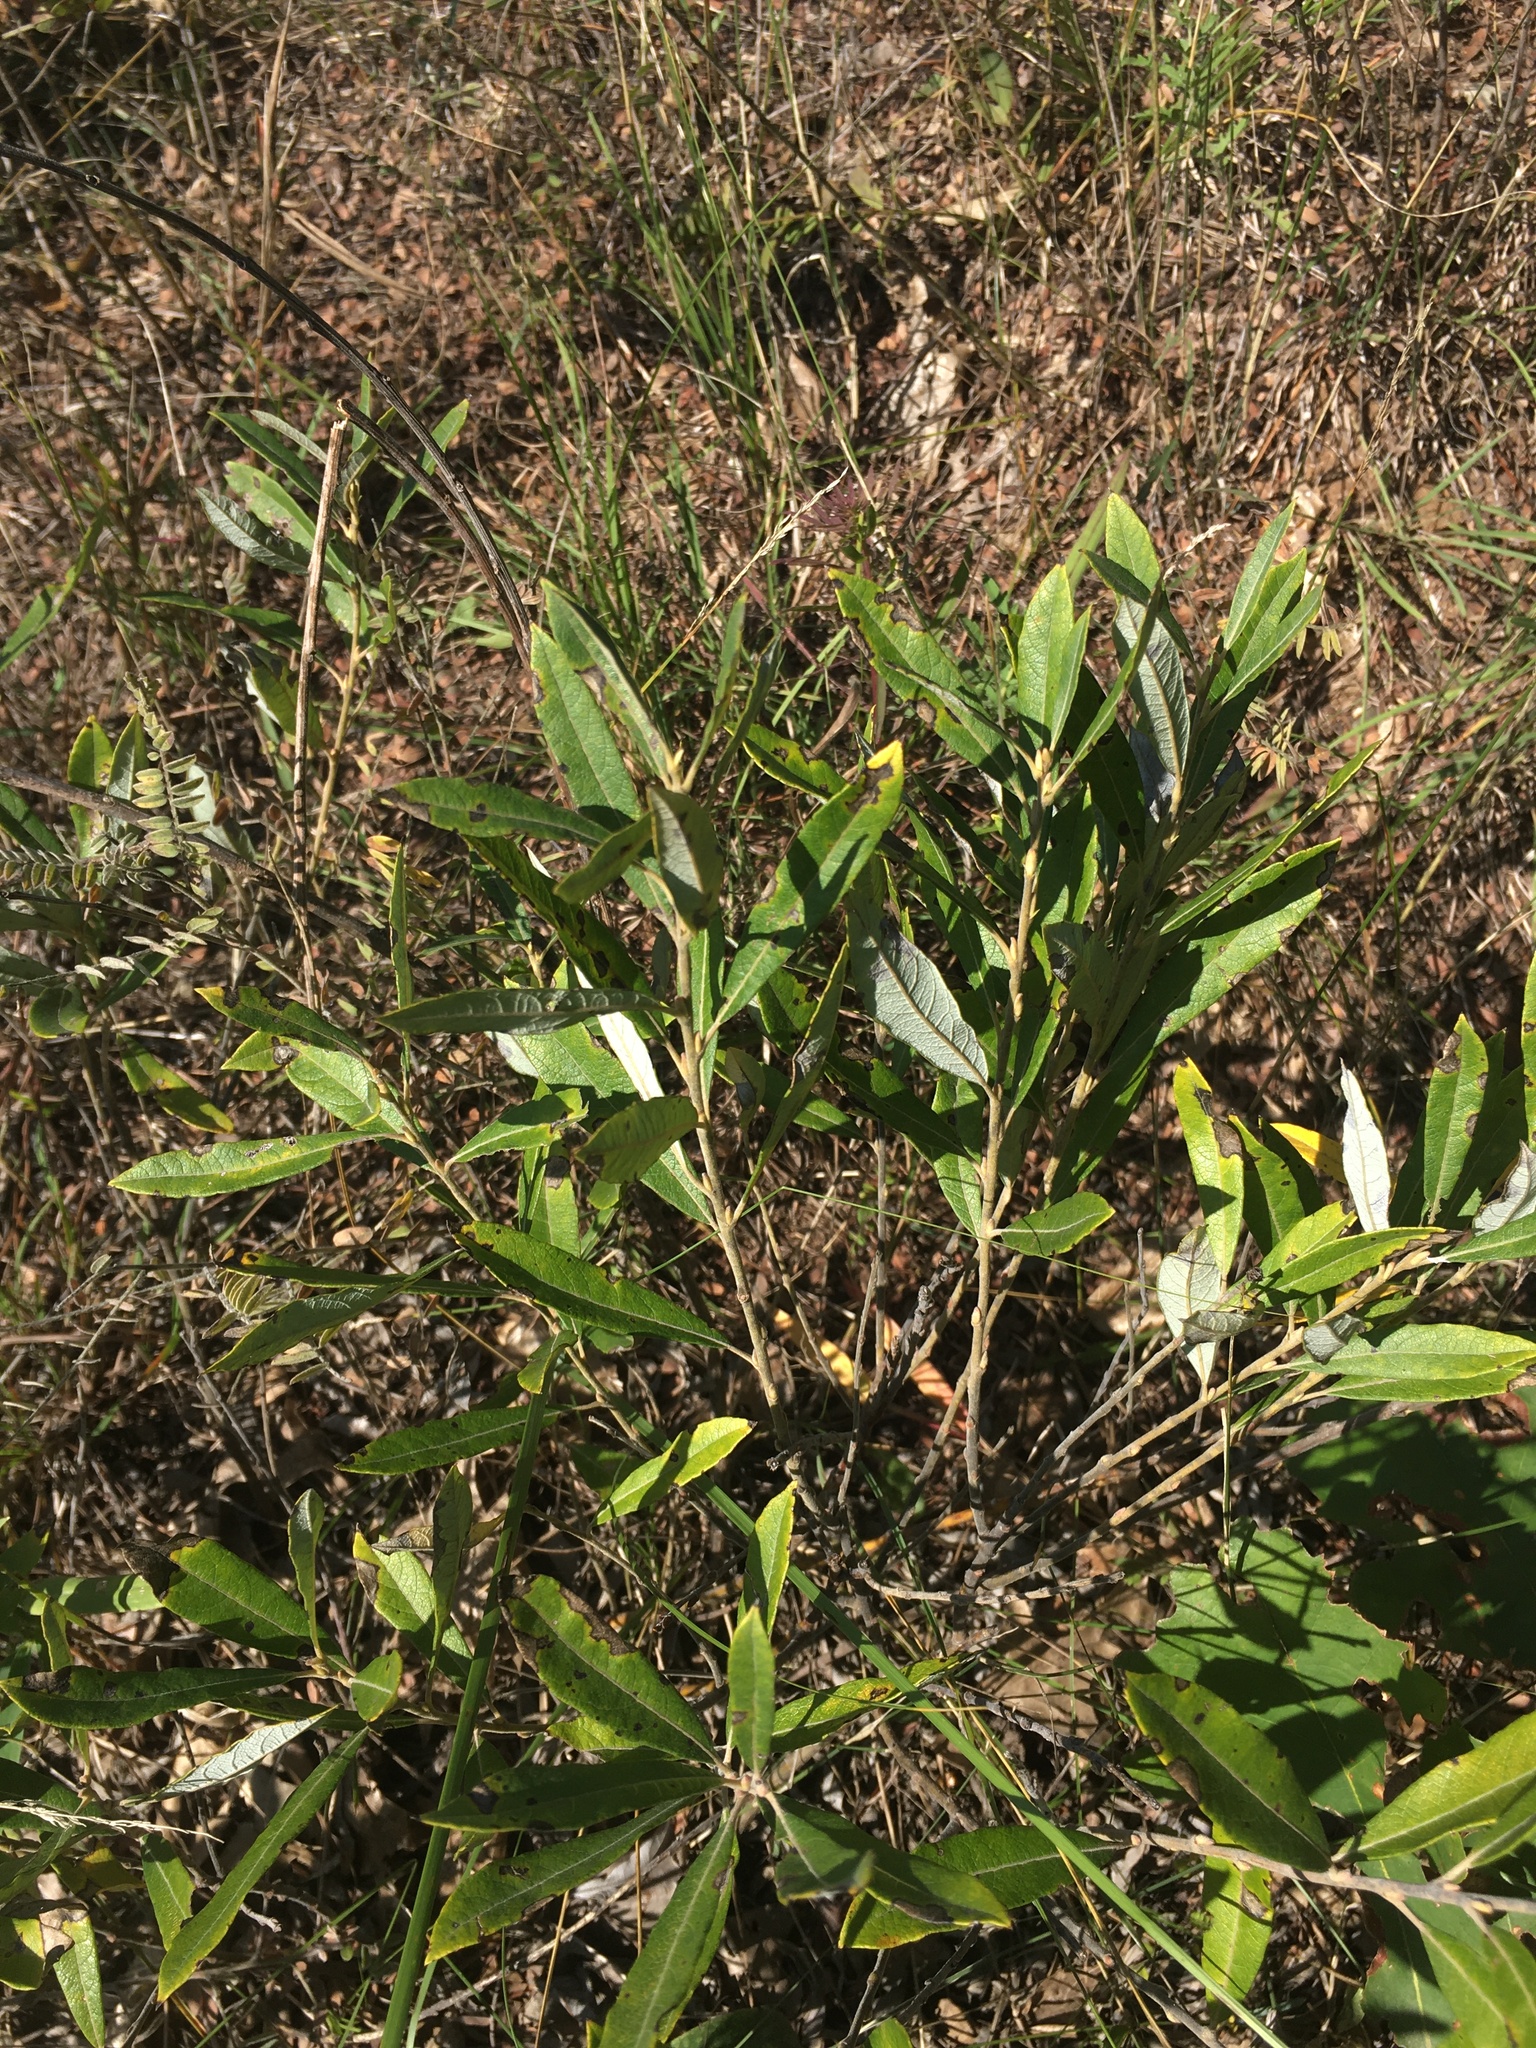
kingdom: Plantae
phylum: Tracheophyta
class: Magnoliopsida
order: Malpighiales
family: Salicaceae
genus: Salix
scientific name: Salix humilis
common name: Prairie willow
